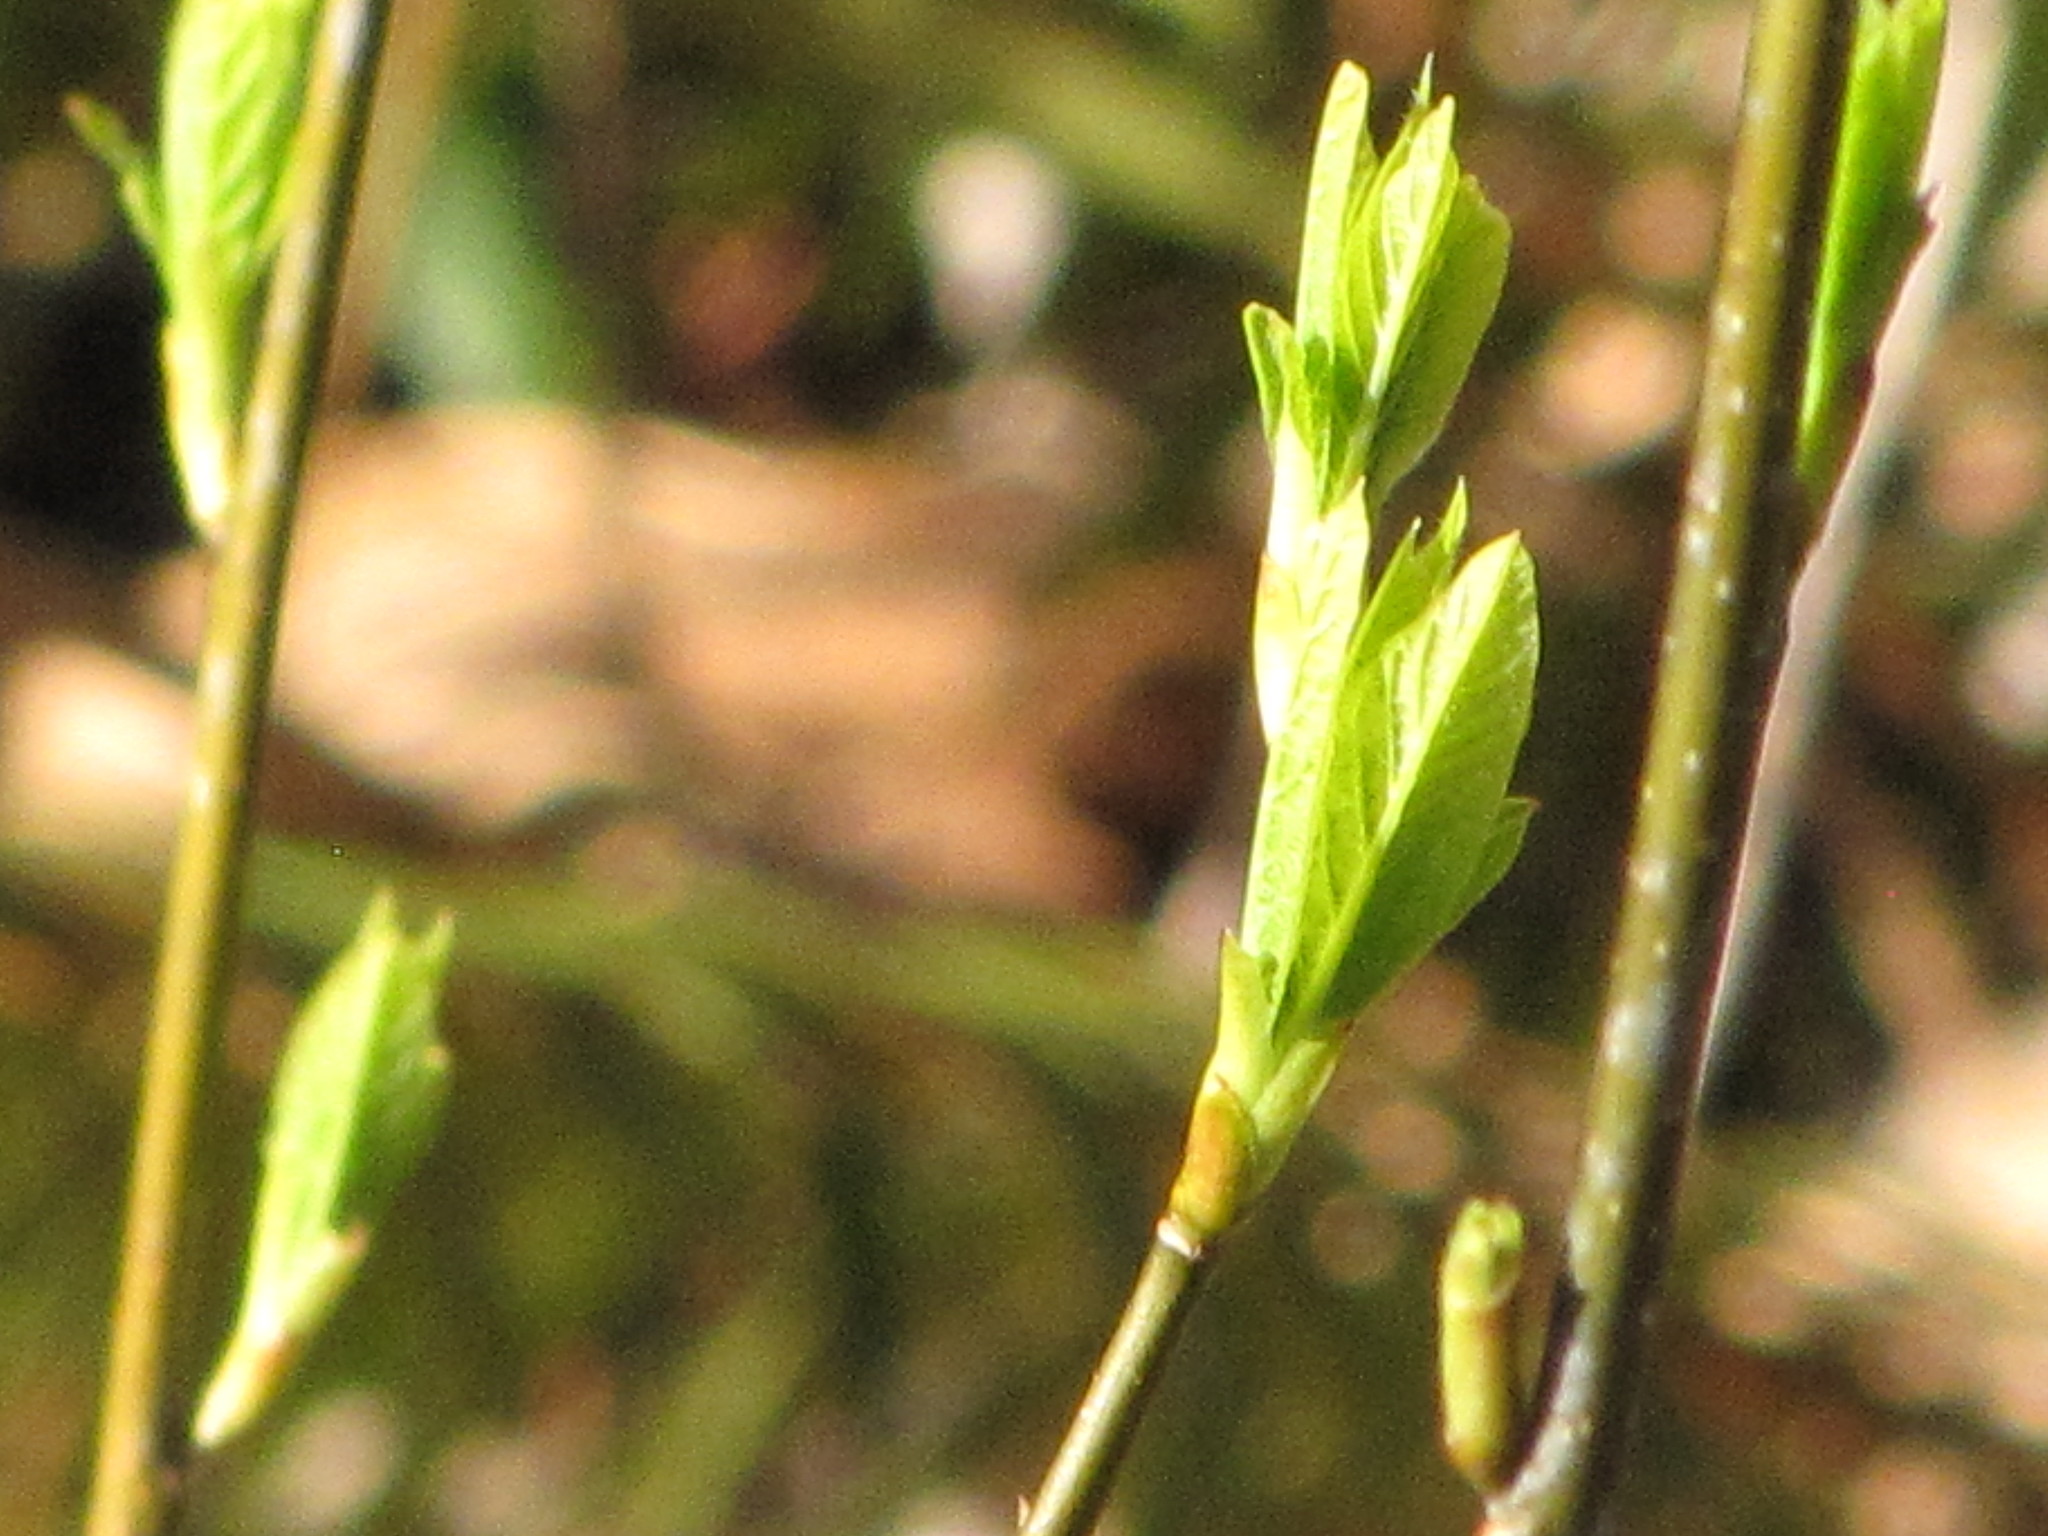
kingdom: Plantae
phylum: Tracheophyta
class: Magnoliopsida
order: Rosales
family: Rosaceae
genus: Oemleria
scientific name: Oemleria cerasiformis
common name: Osoberry
